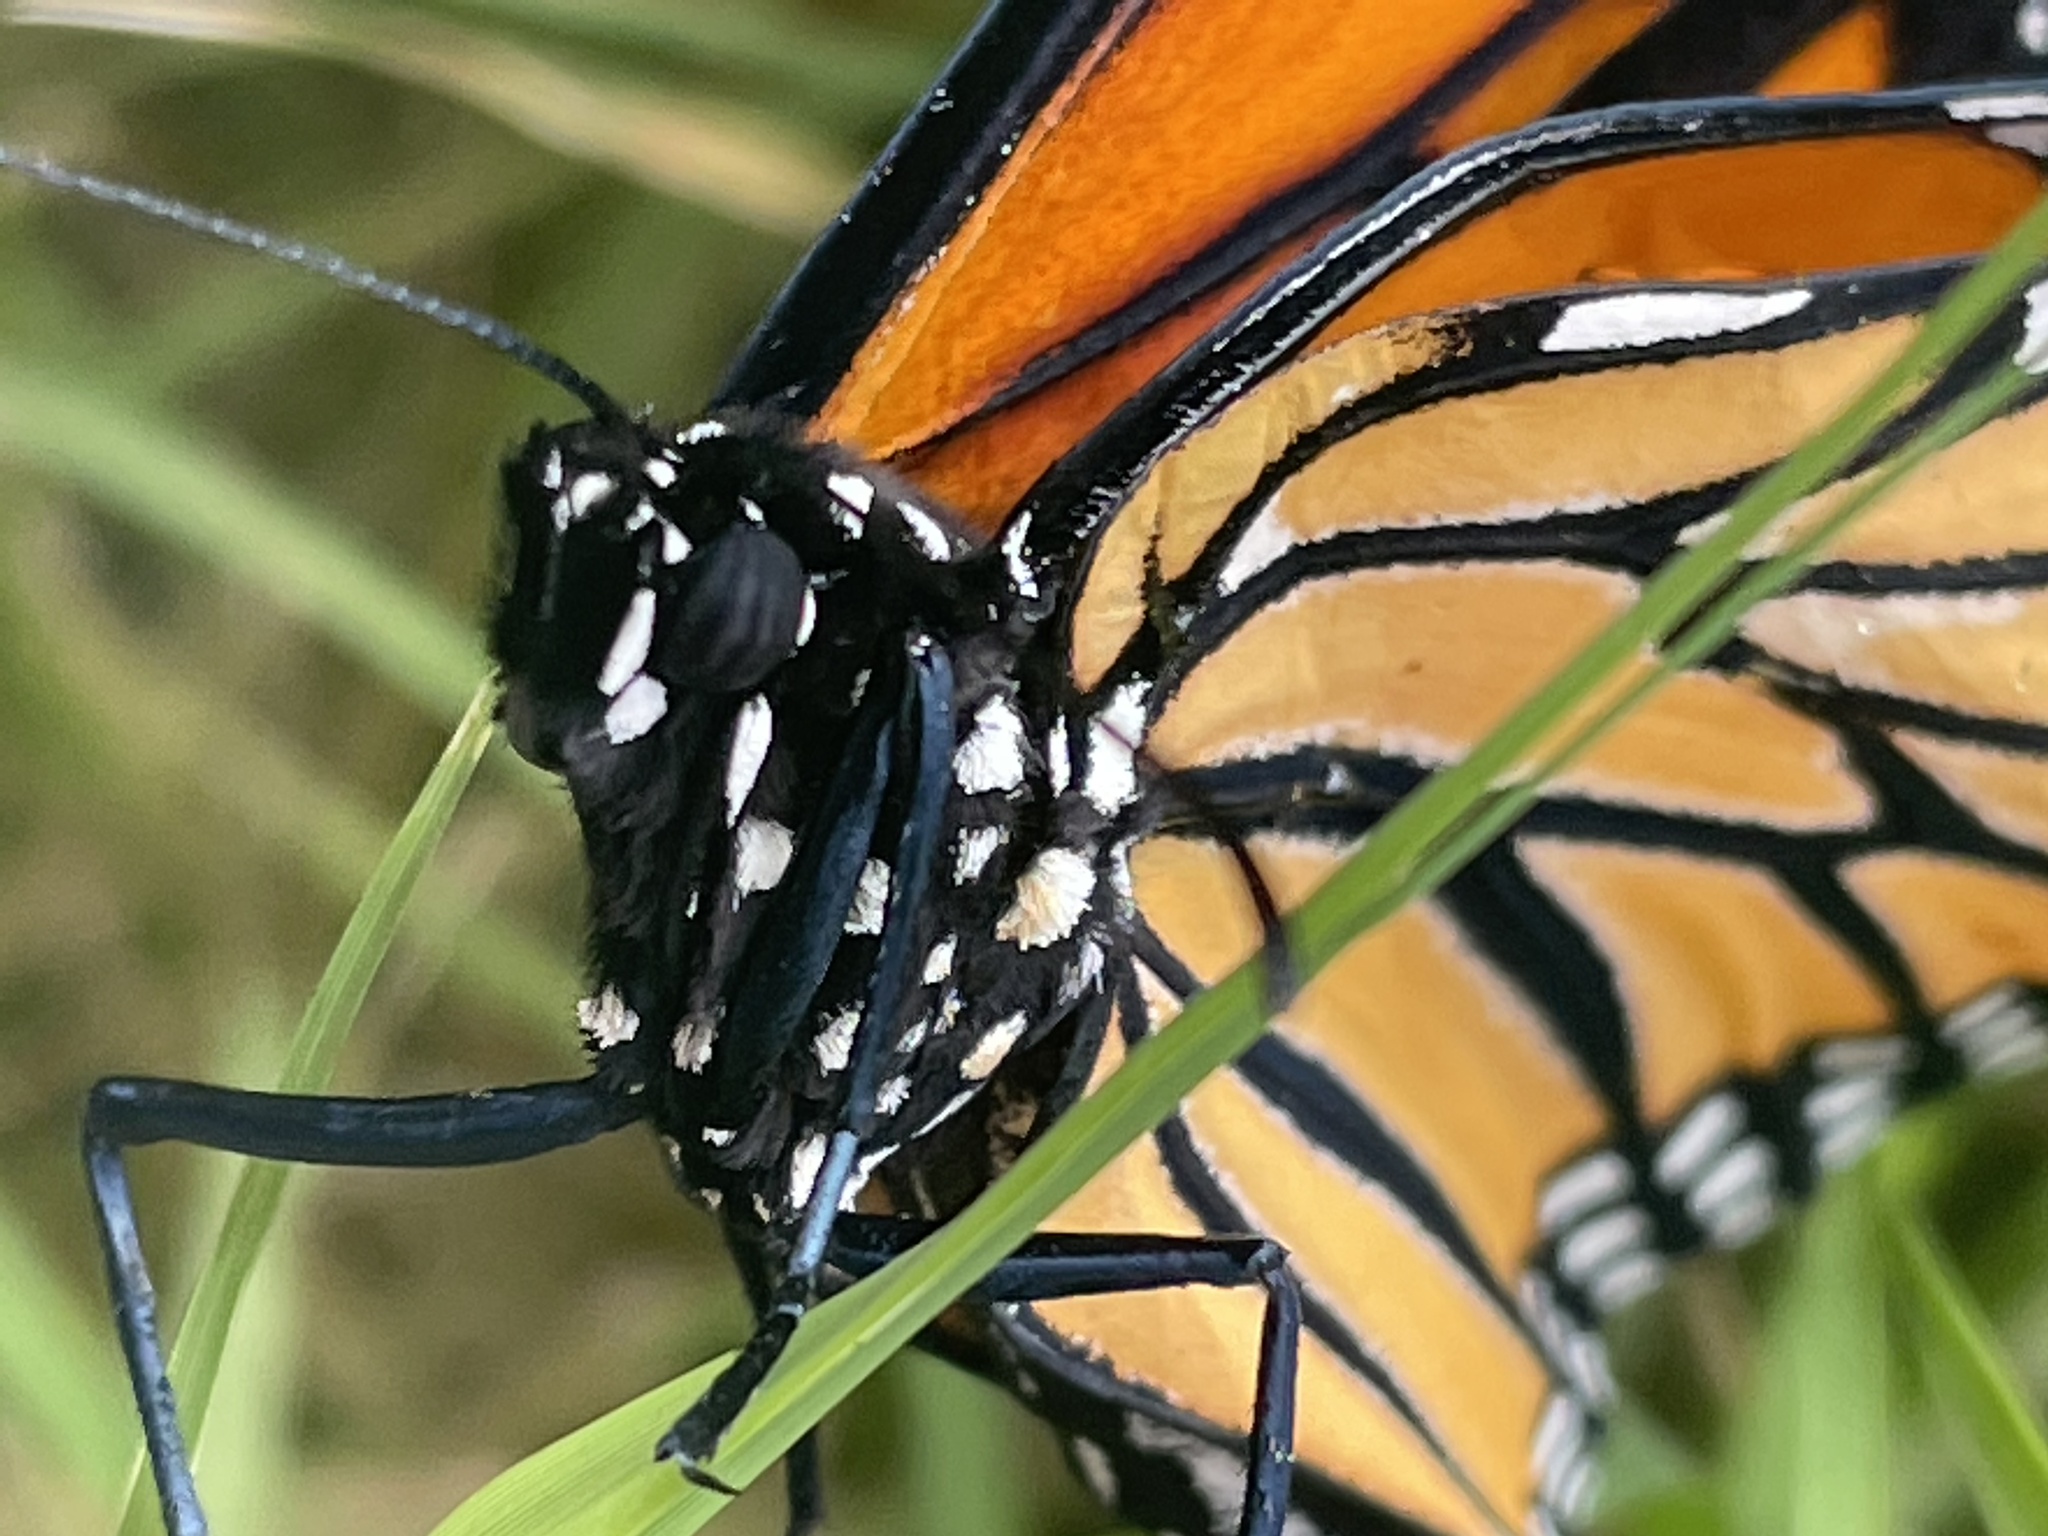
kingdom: Animalia
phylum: Arthropoda
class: Insecta
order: Lepidoptera
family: Nymphalidae
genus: Danaus
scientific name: Danaus plexippus
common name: Monarch
